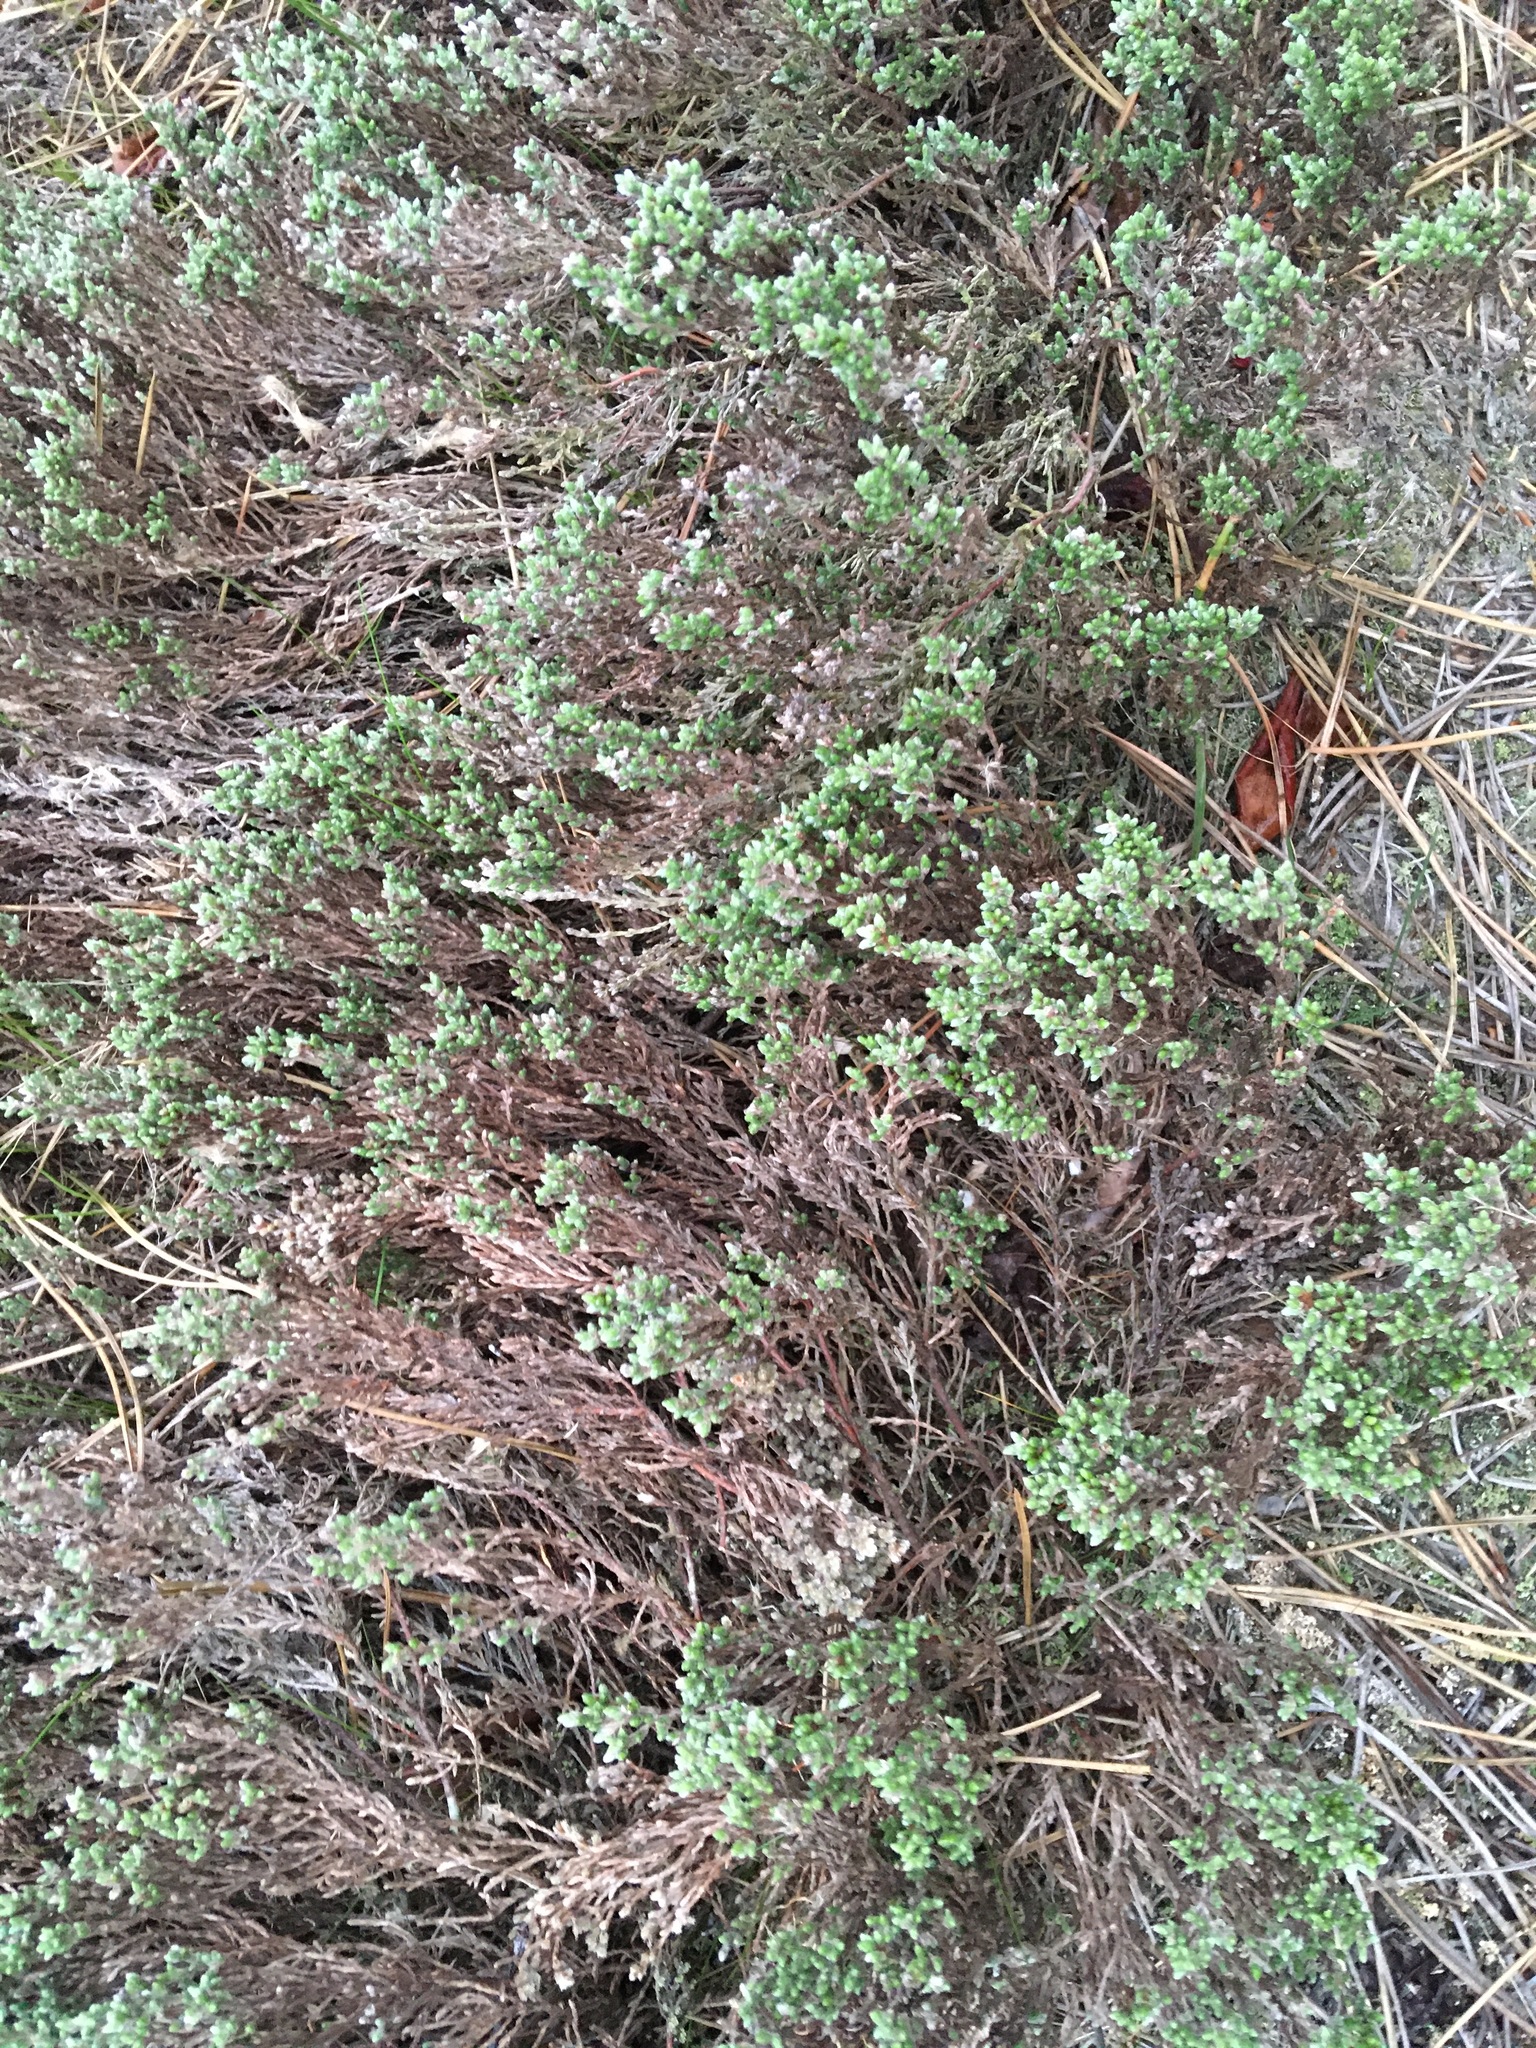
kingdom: Plantae
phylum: Tracheophyta
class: Magnoliopsida
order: Malvales
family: Cistaceae
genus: Hudsonia
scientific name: Hudsonia tomentosa
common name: Beach-heath
